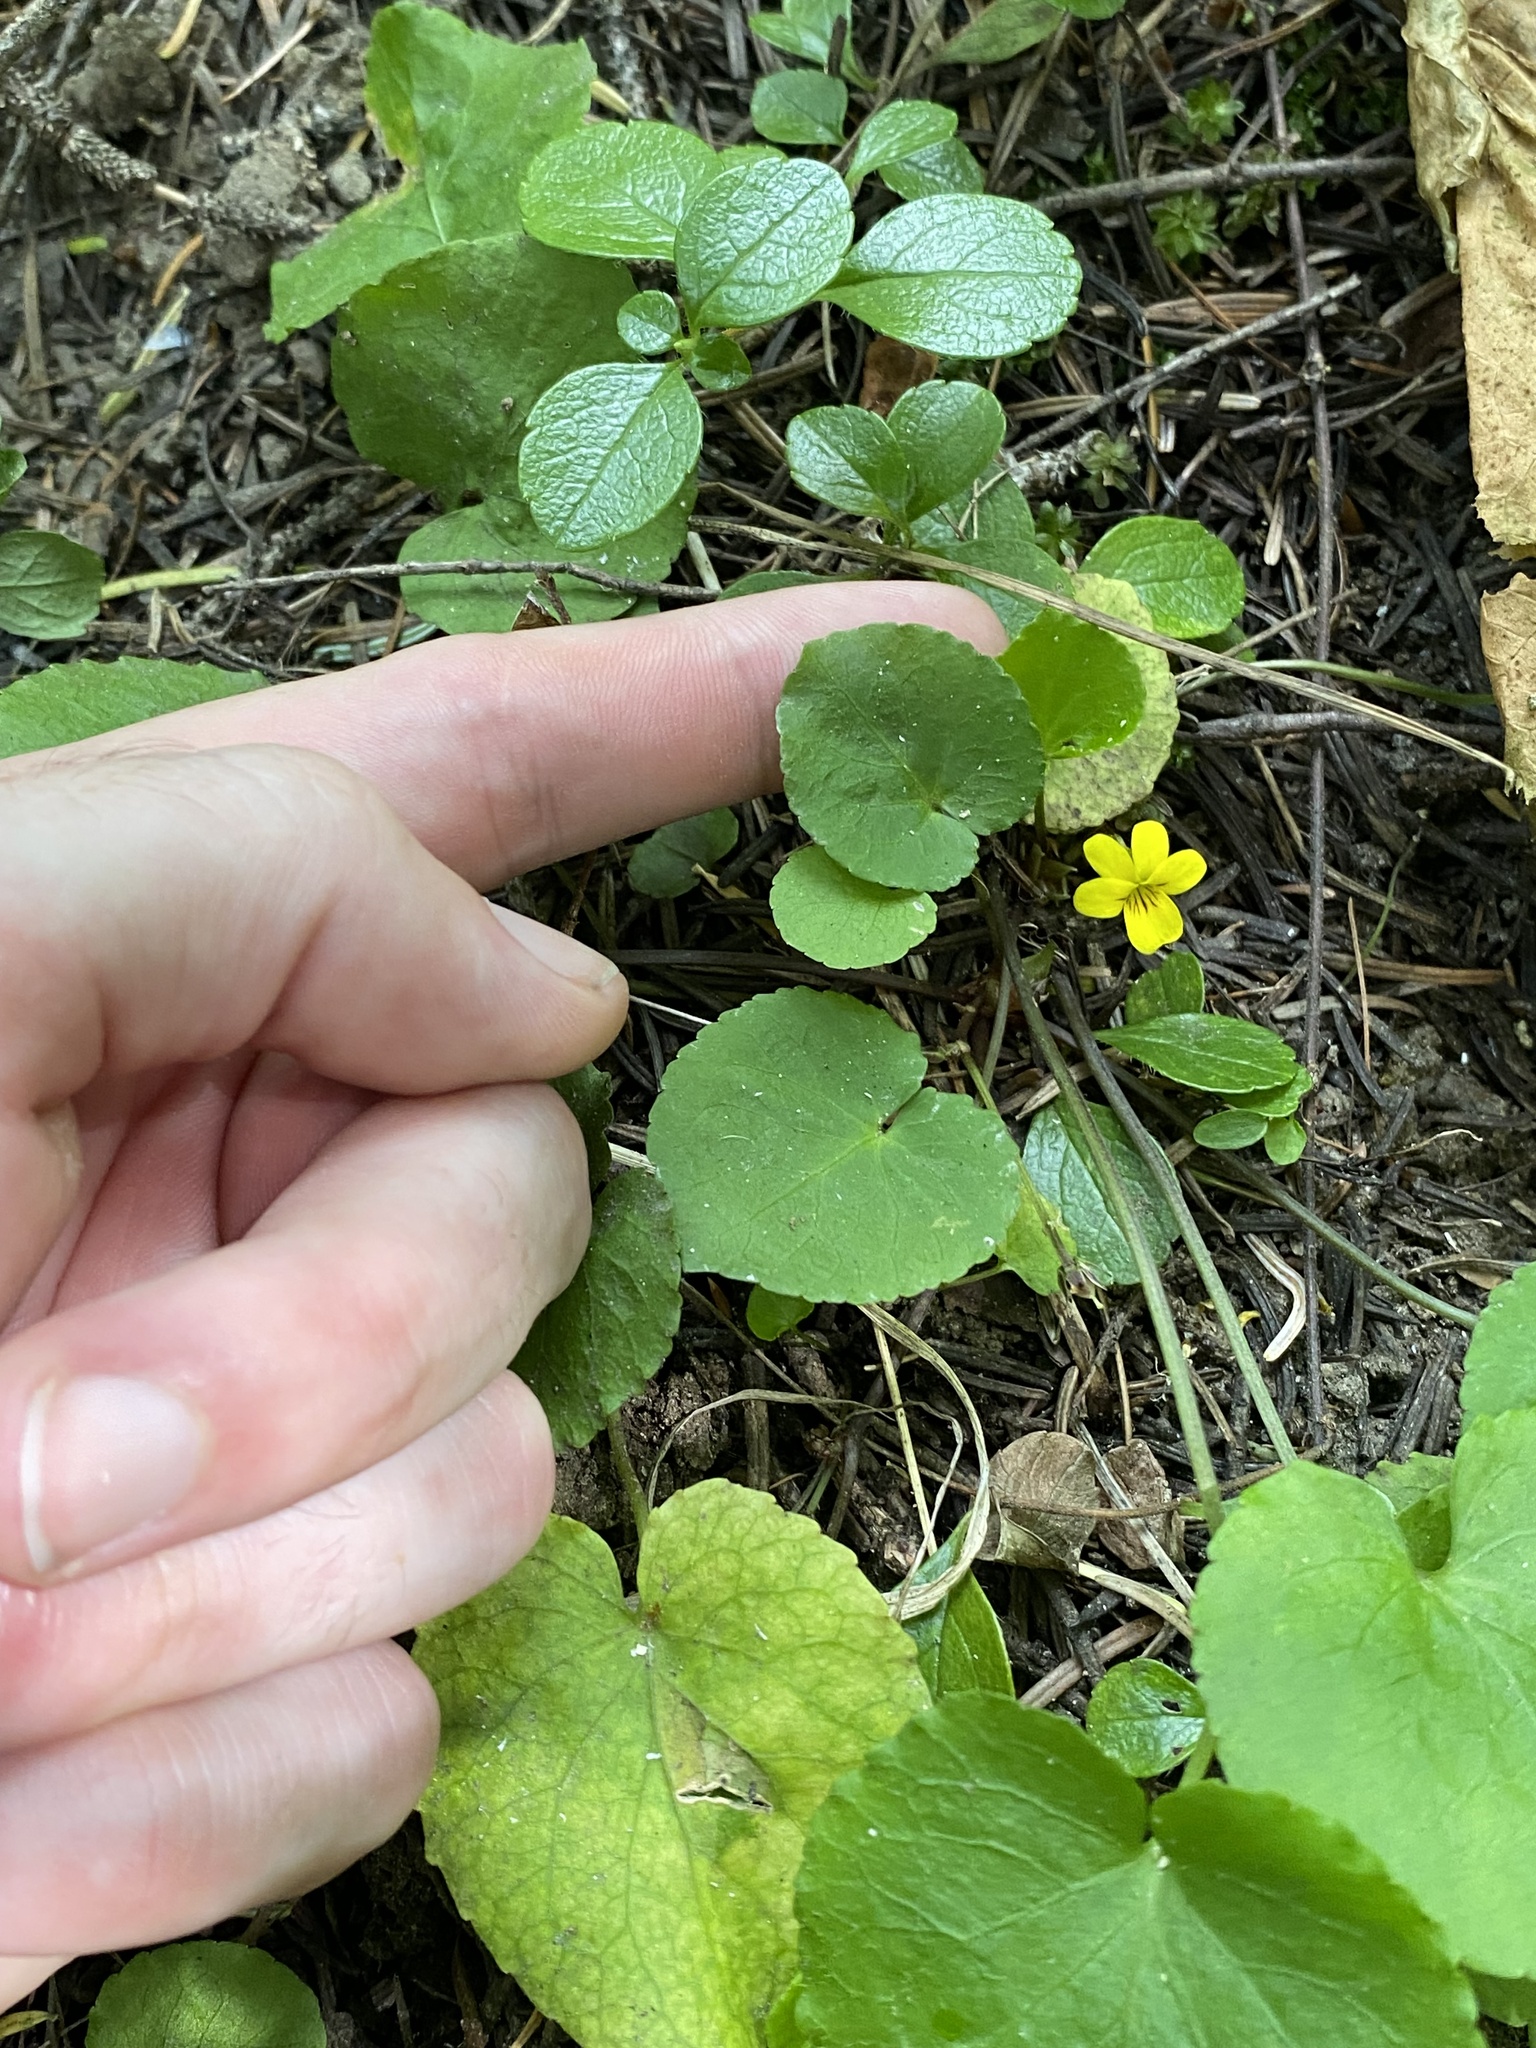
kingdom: Plantae
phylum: Tracheophyta
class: Magnoliopsida
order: Malpighiales
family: Violaceae
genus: Viola
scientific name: Viola orbiculata
